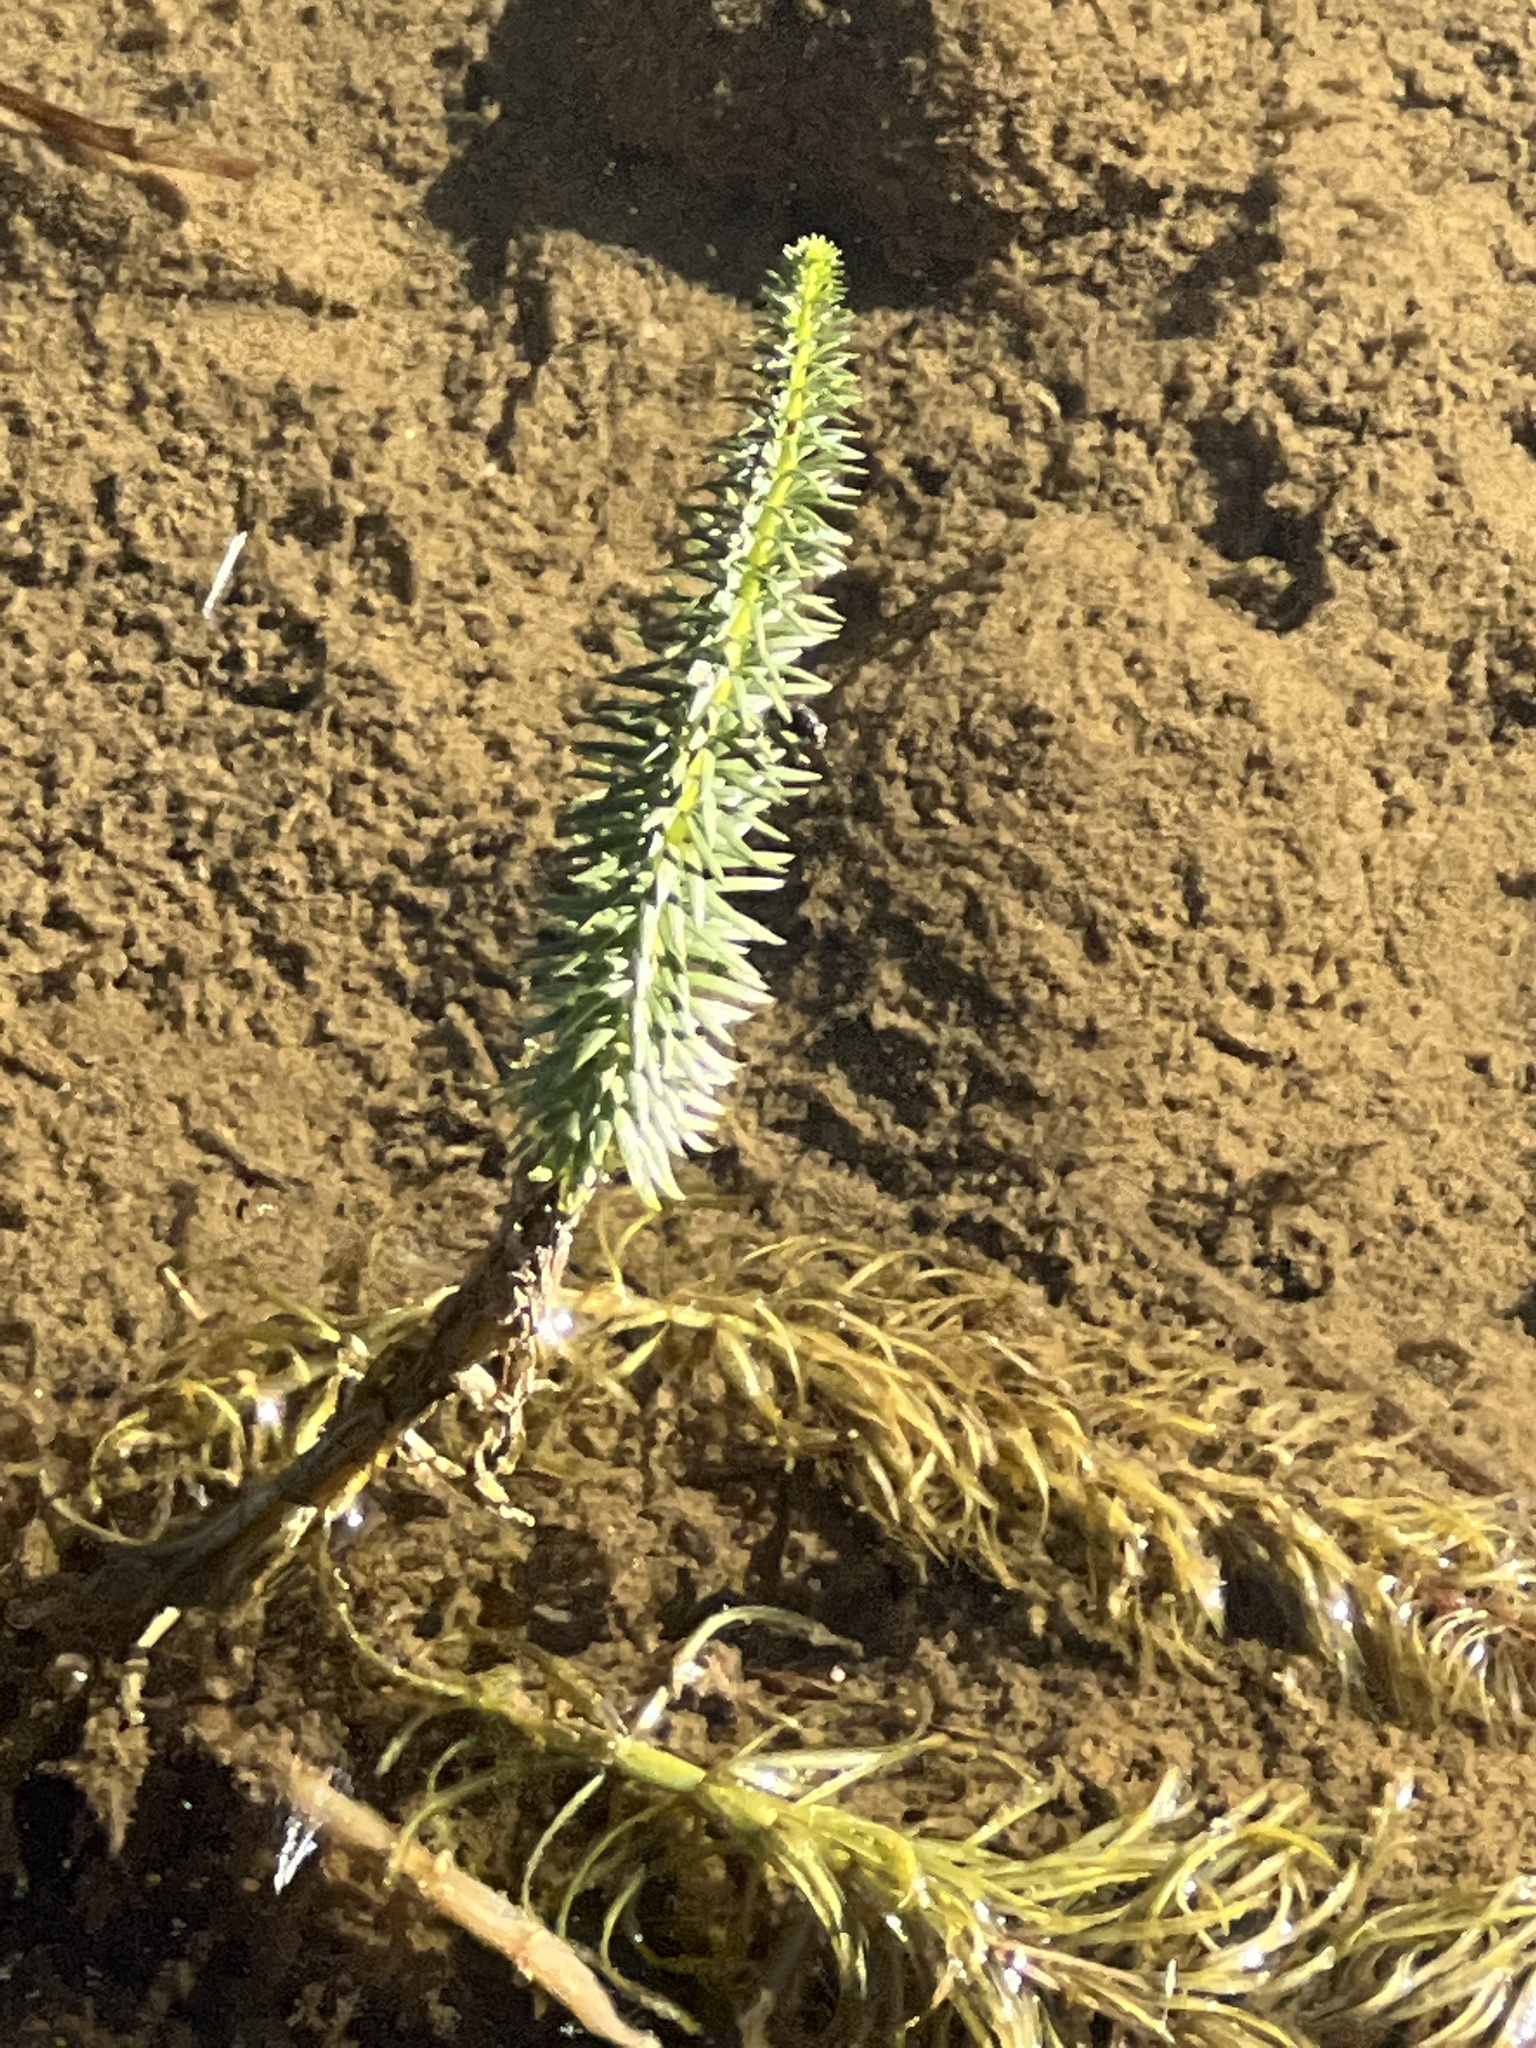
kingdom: Plantae
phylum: Tracheophyta
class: Magnoliopsida
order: Lamiales
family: Plantaginaceae
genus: Hippuris
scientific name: Hippuris vulgaris
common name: Mare's-tail
